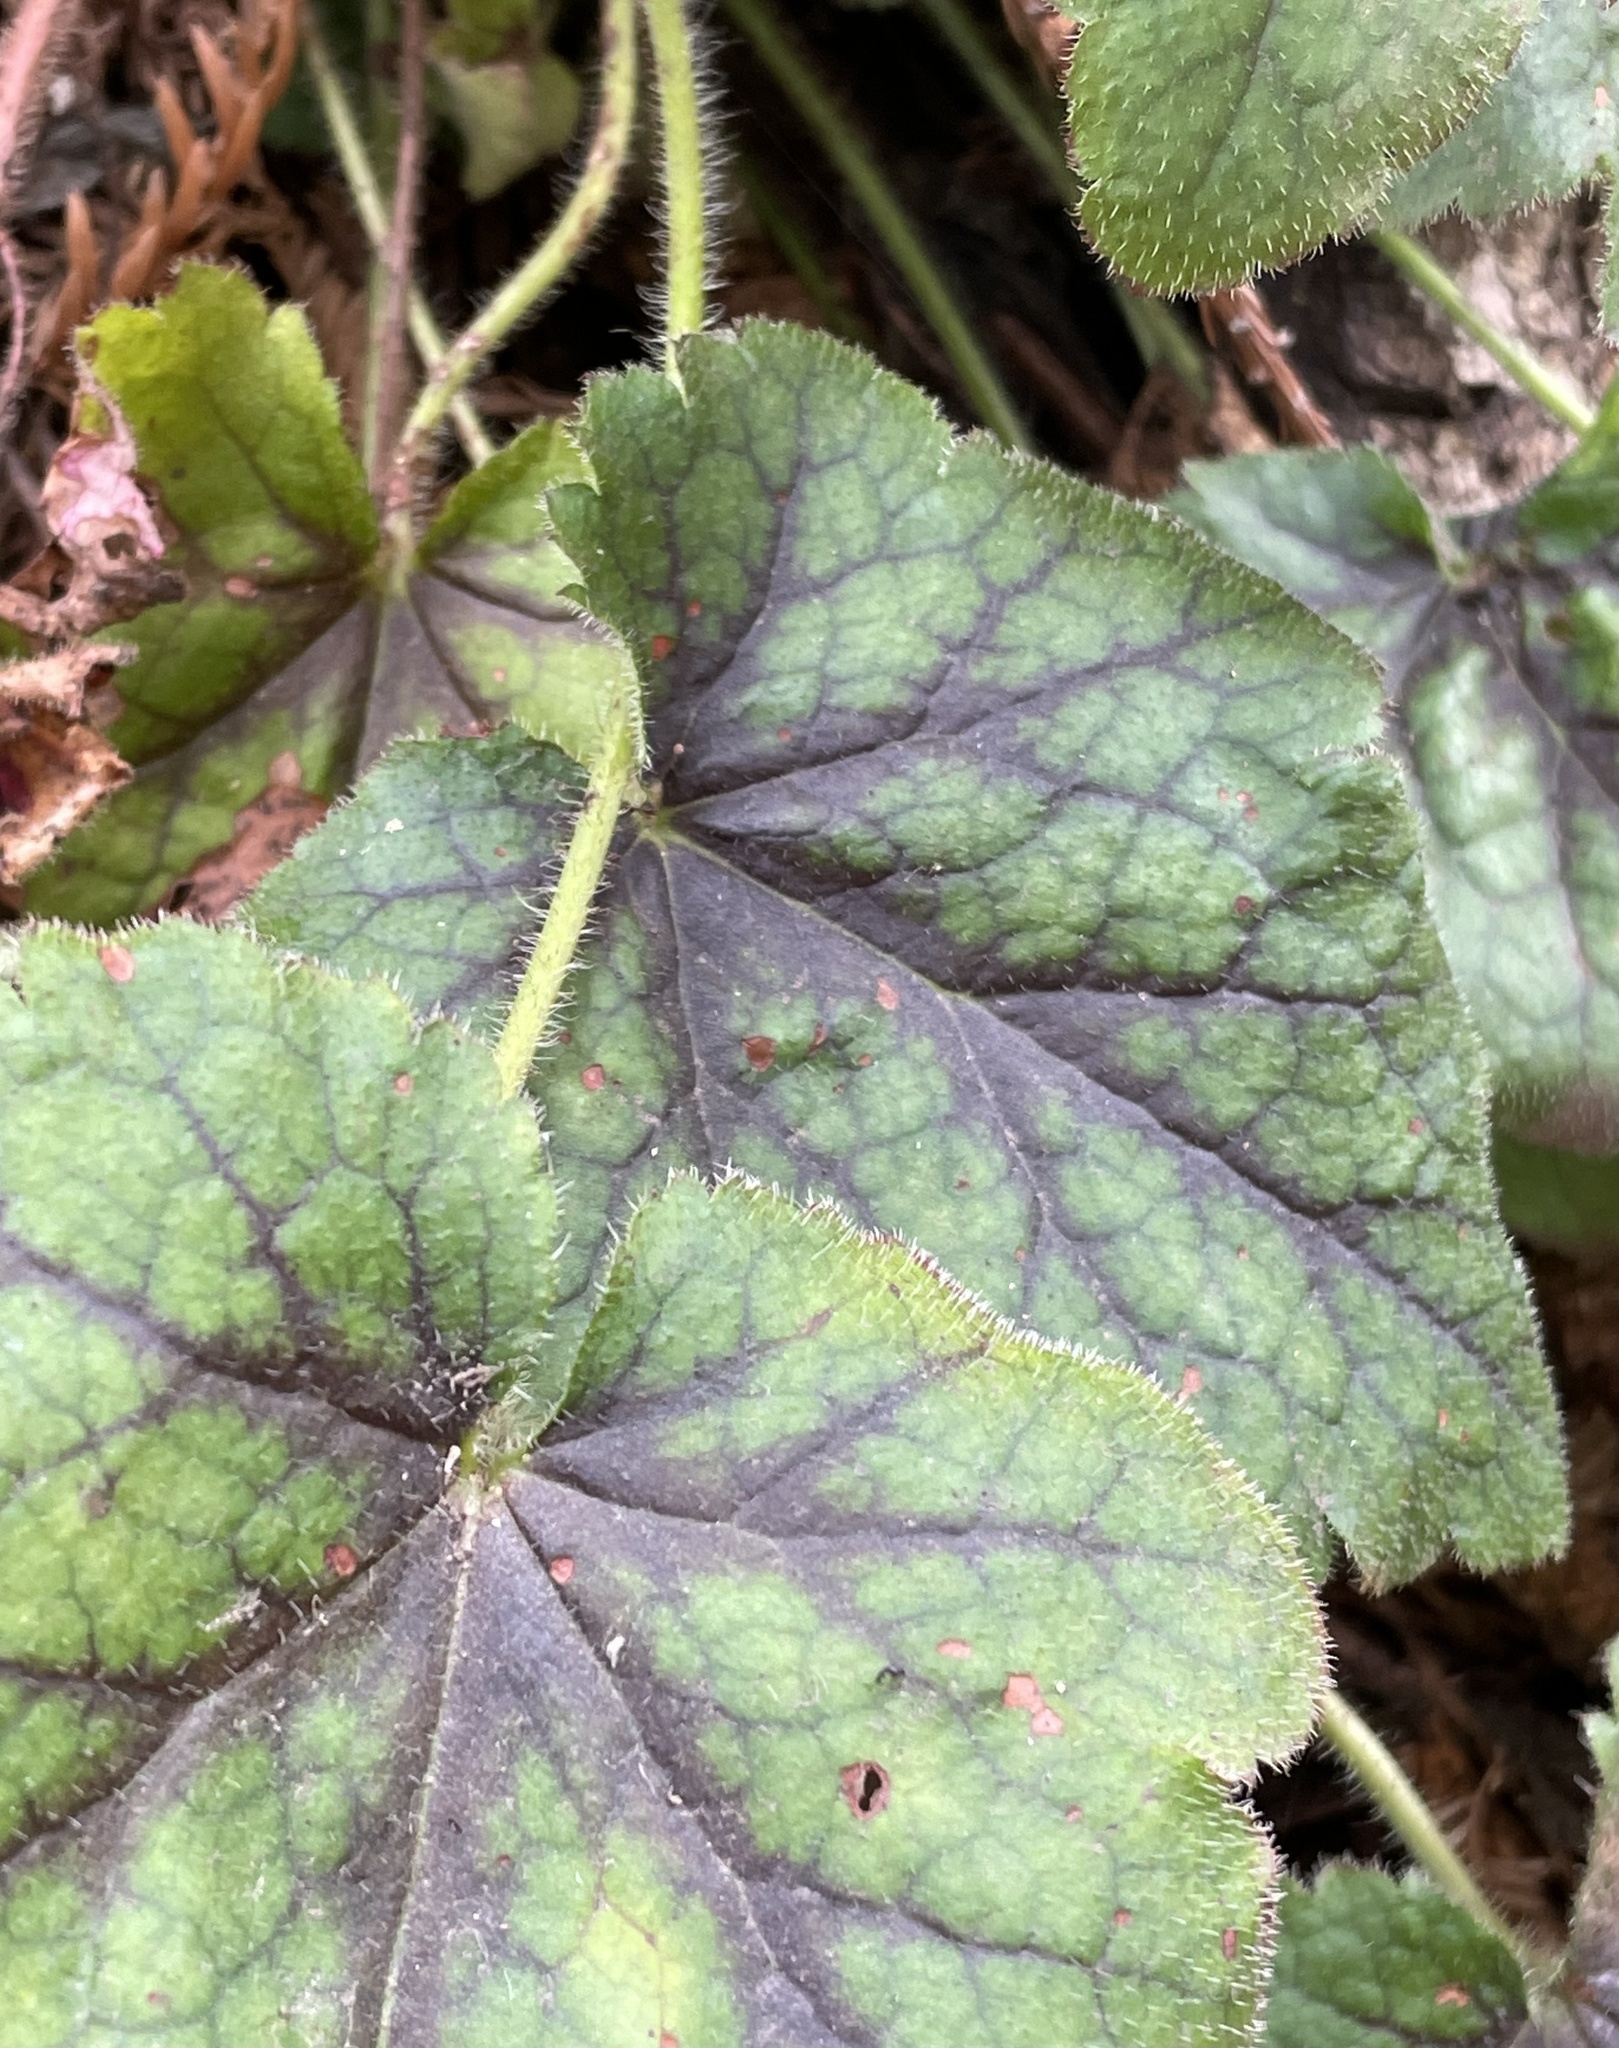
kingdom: Plantae
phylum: Tracheophyta
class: Magnoliopsida
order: Saxifragales
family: Saxifragaceae
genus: Heuchera
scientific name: Heuchera micrantha
